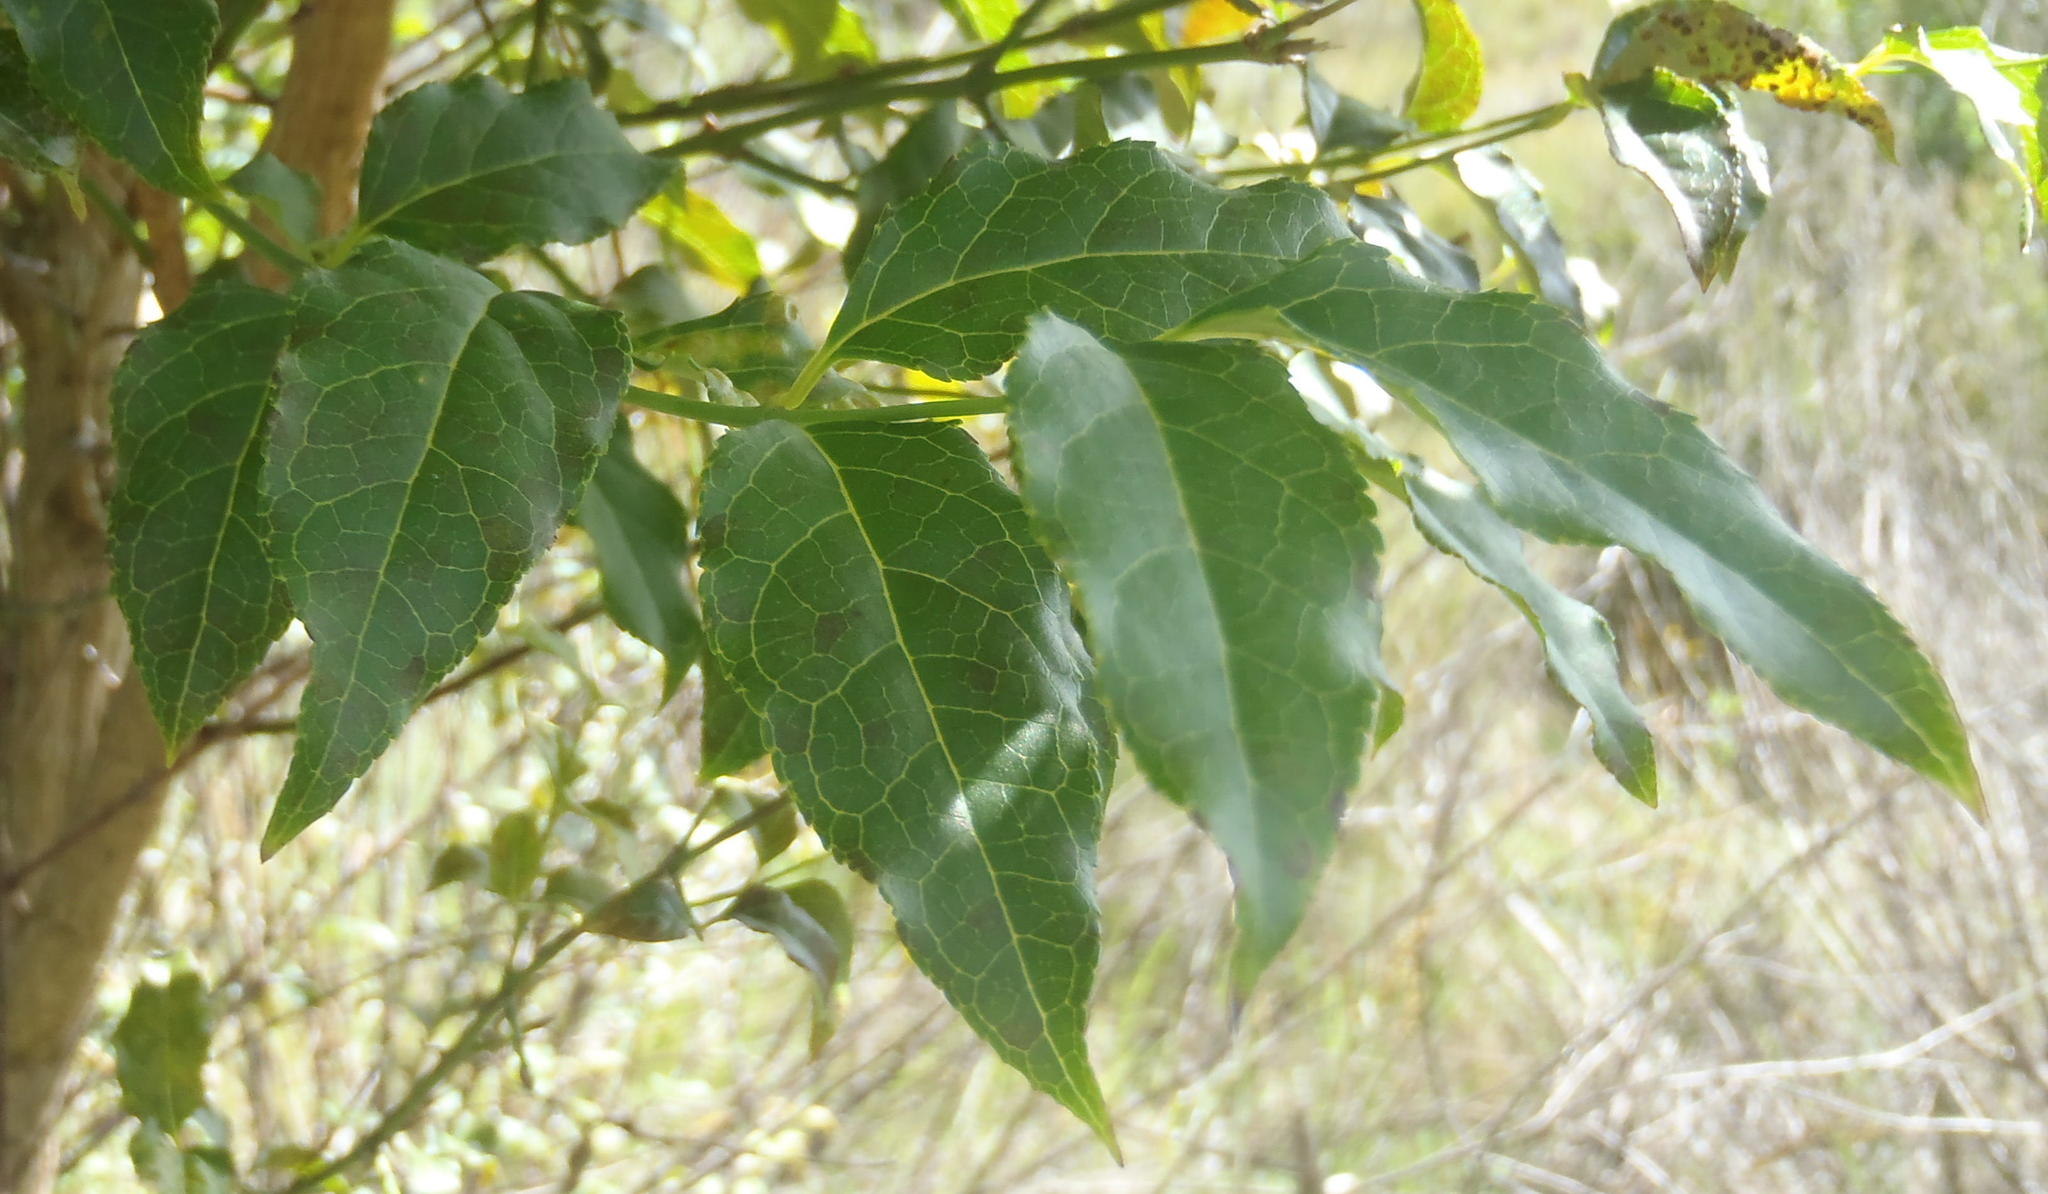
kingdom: Plantae
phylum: Tracheophyta
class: Magnoliopsida
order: Lamiales
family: Stilbaceae
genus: Halleria
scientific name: Halleria lucida
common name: Tree fuschia
